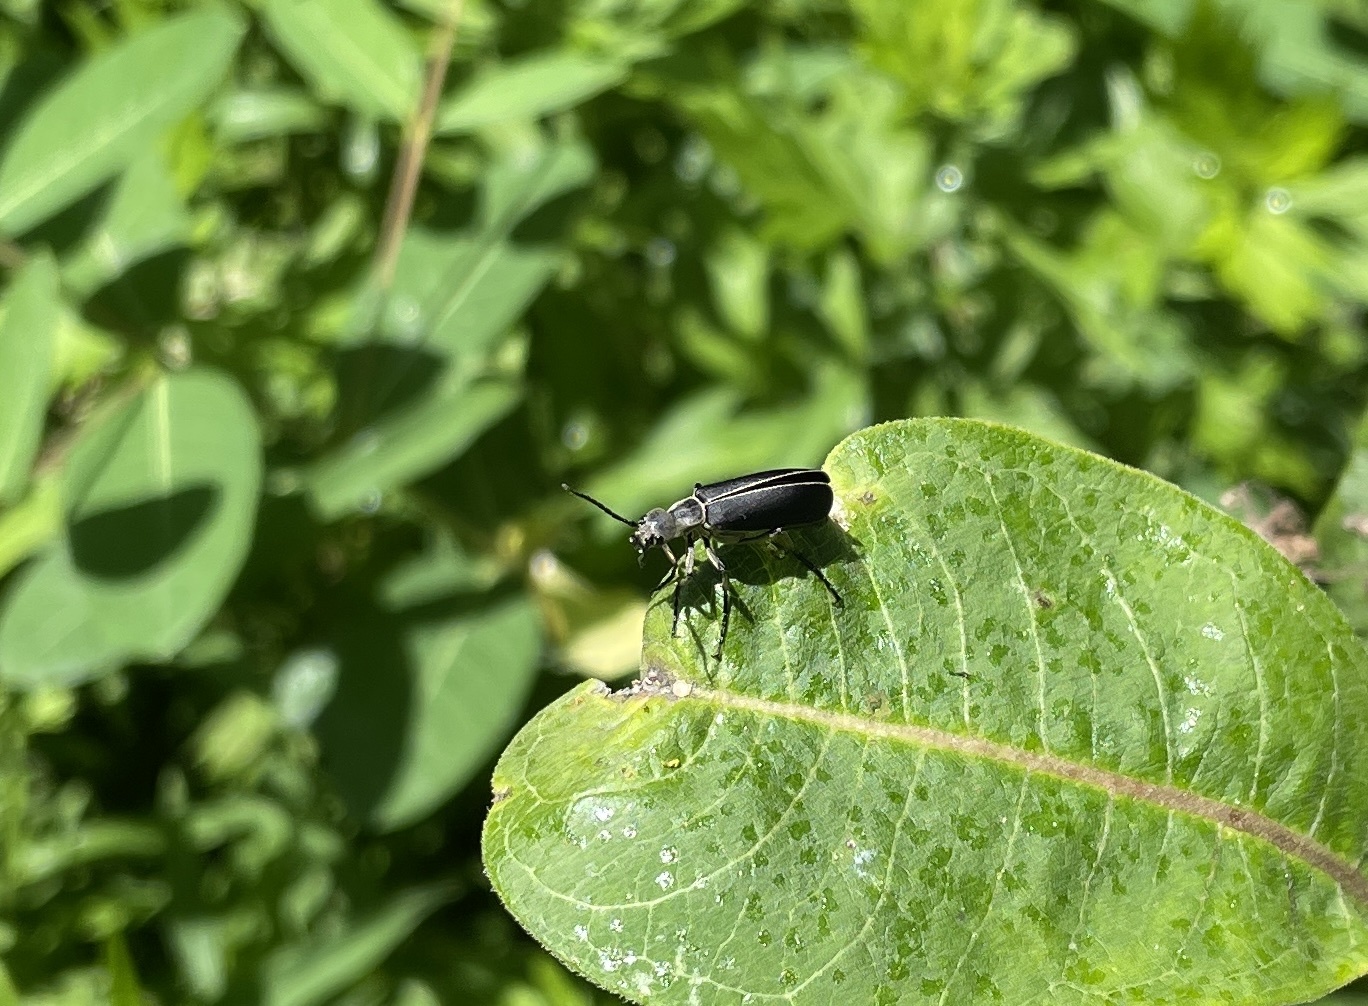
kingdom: Animalia
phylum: Arthropoda
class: Insecta
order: Coleoptera
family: Meloidae
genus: Epicauta
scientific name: Epicauta cinerea
